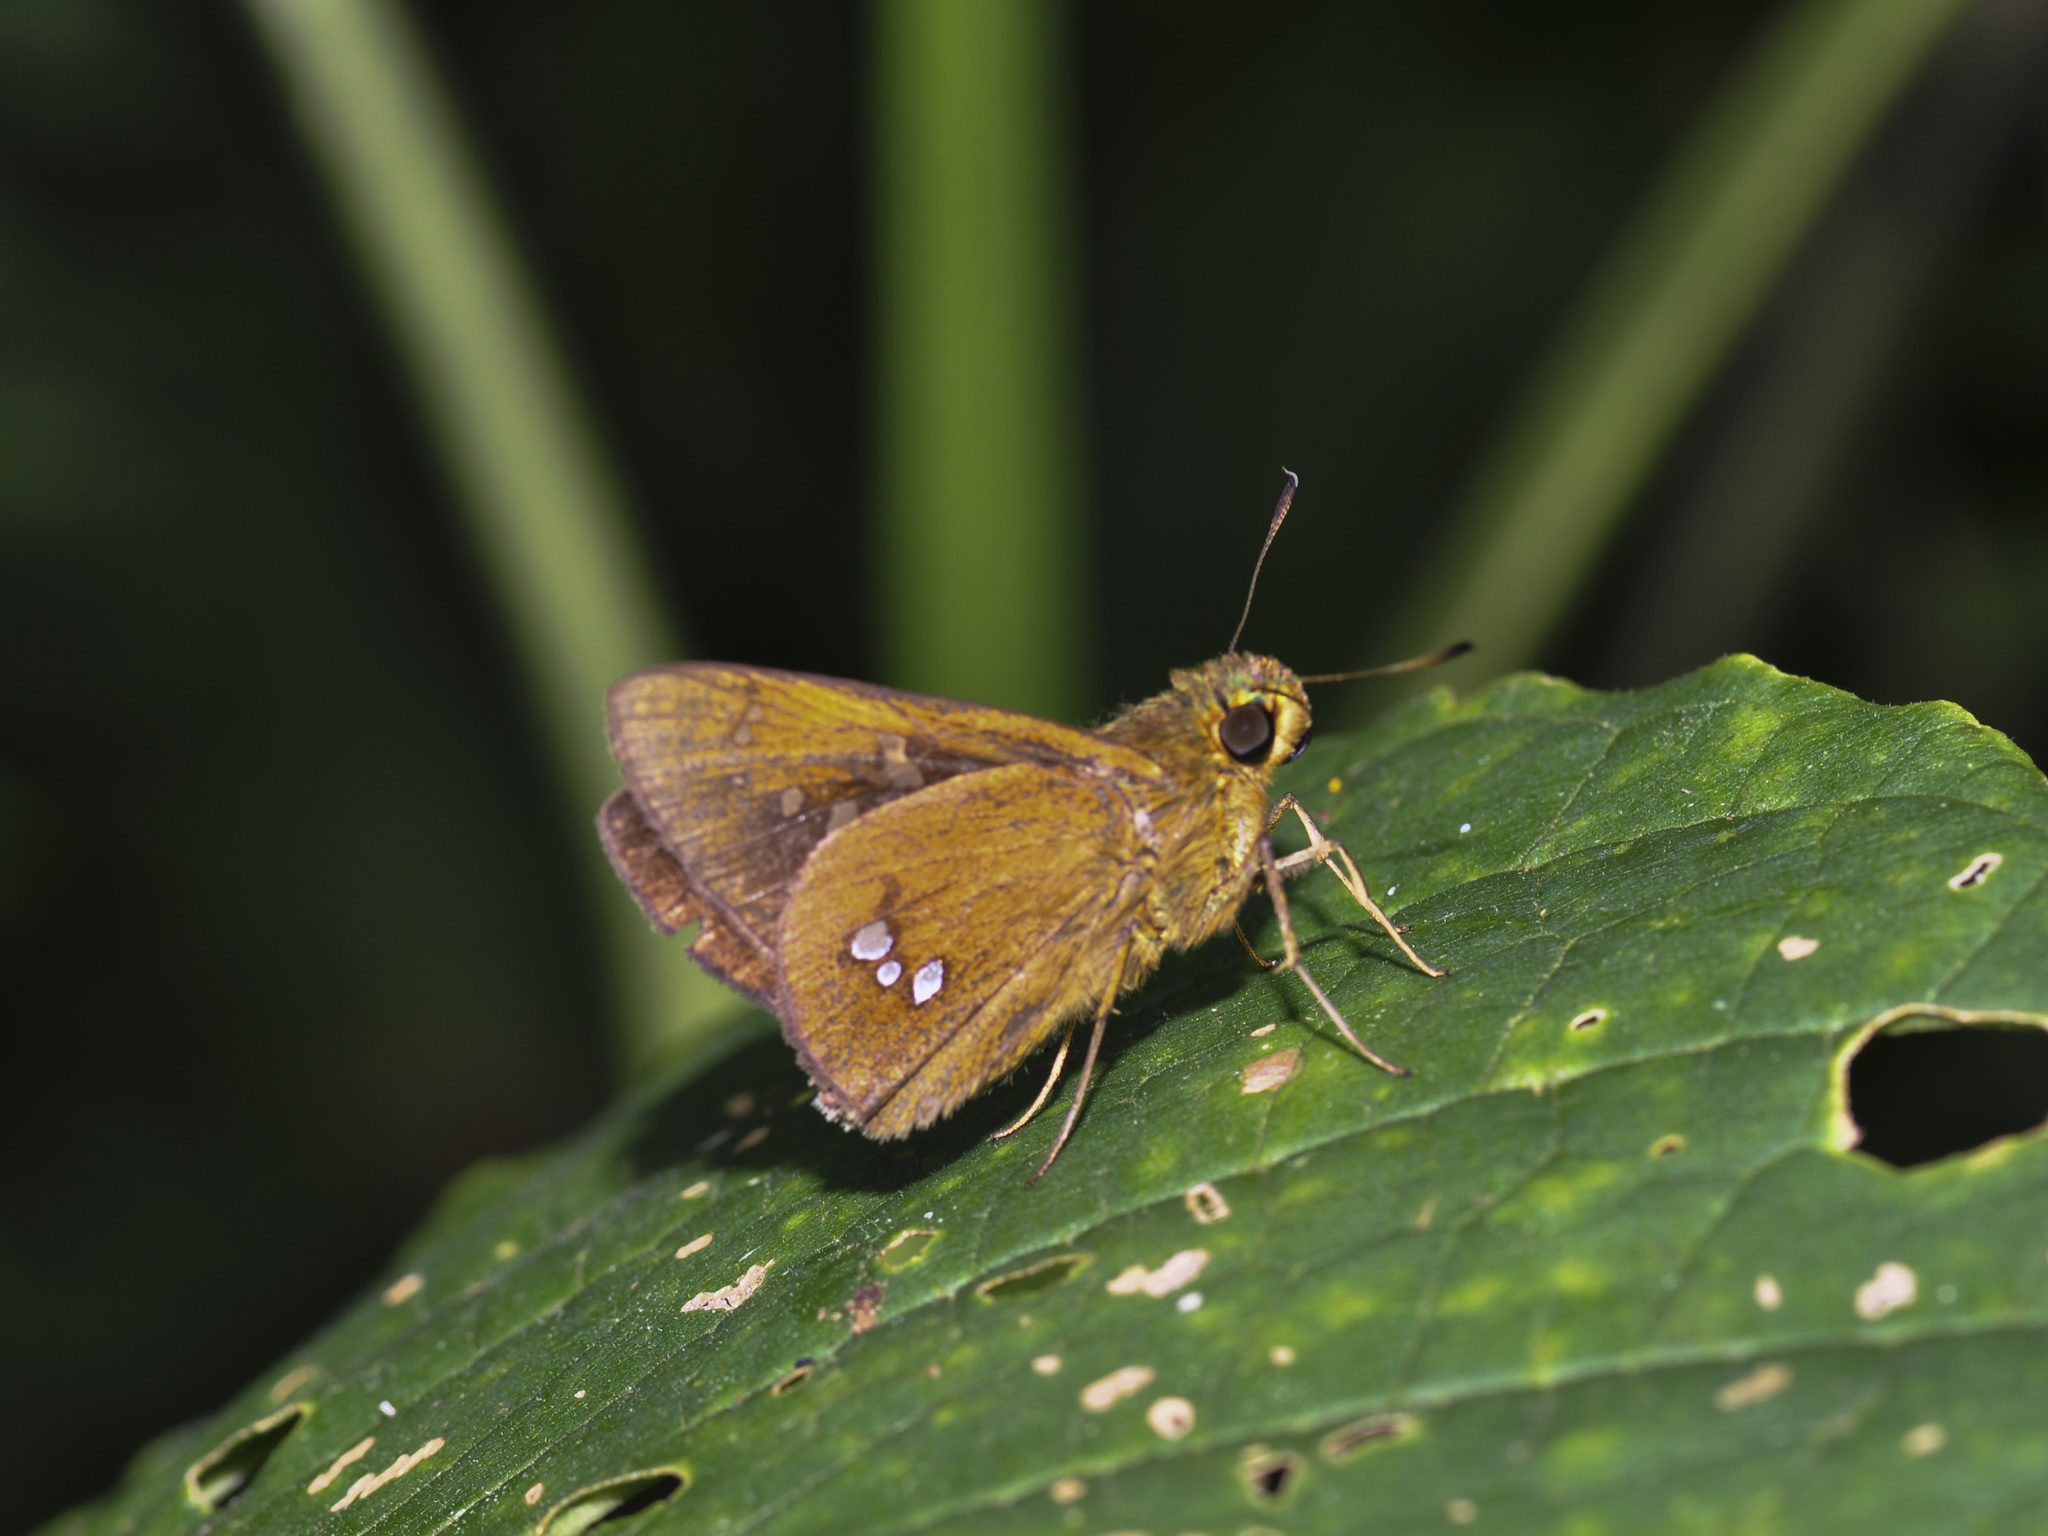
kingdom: Animalia
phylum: Arthropoda
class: Insecta
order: Lepidoptera
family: Hesperiidae
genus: Polytremis
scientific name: Polytremis eltola
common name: Yellow-spot swift
